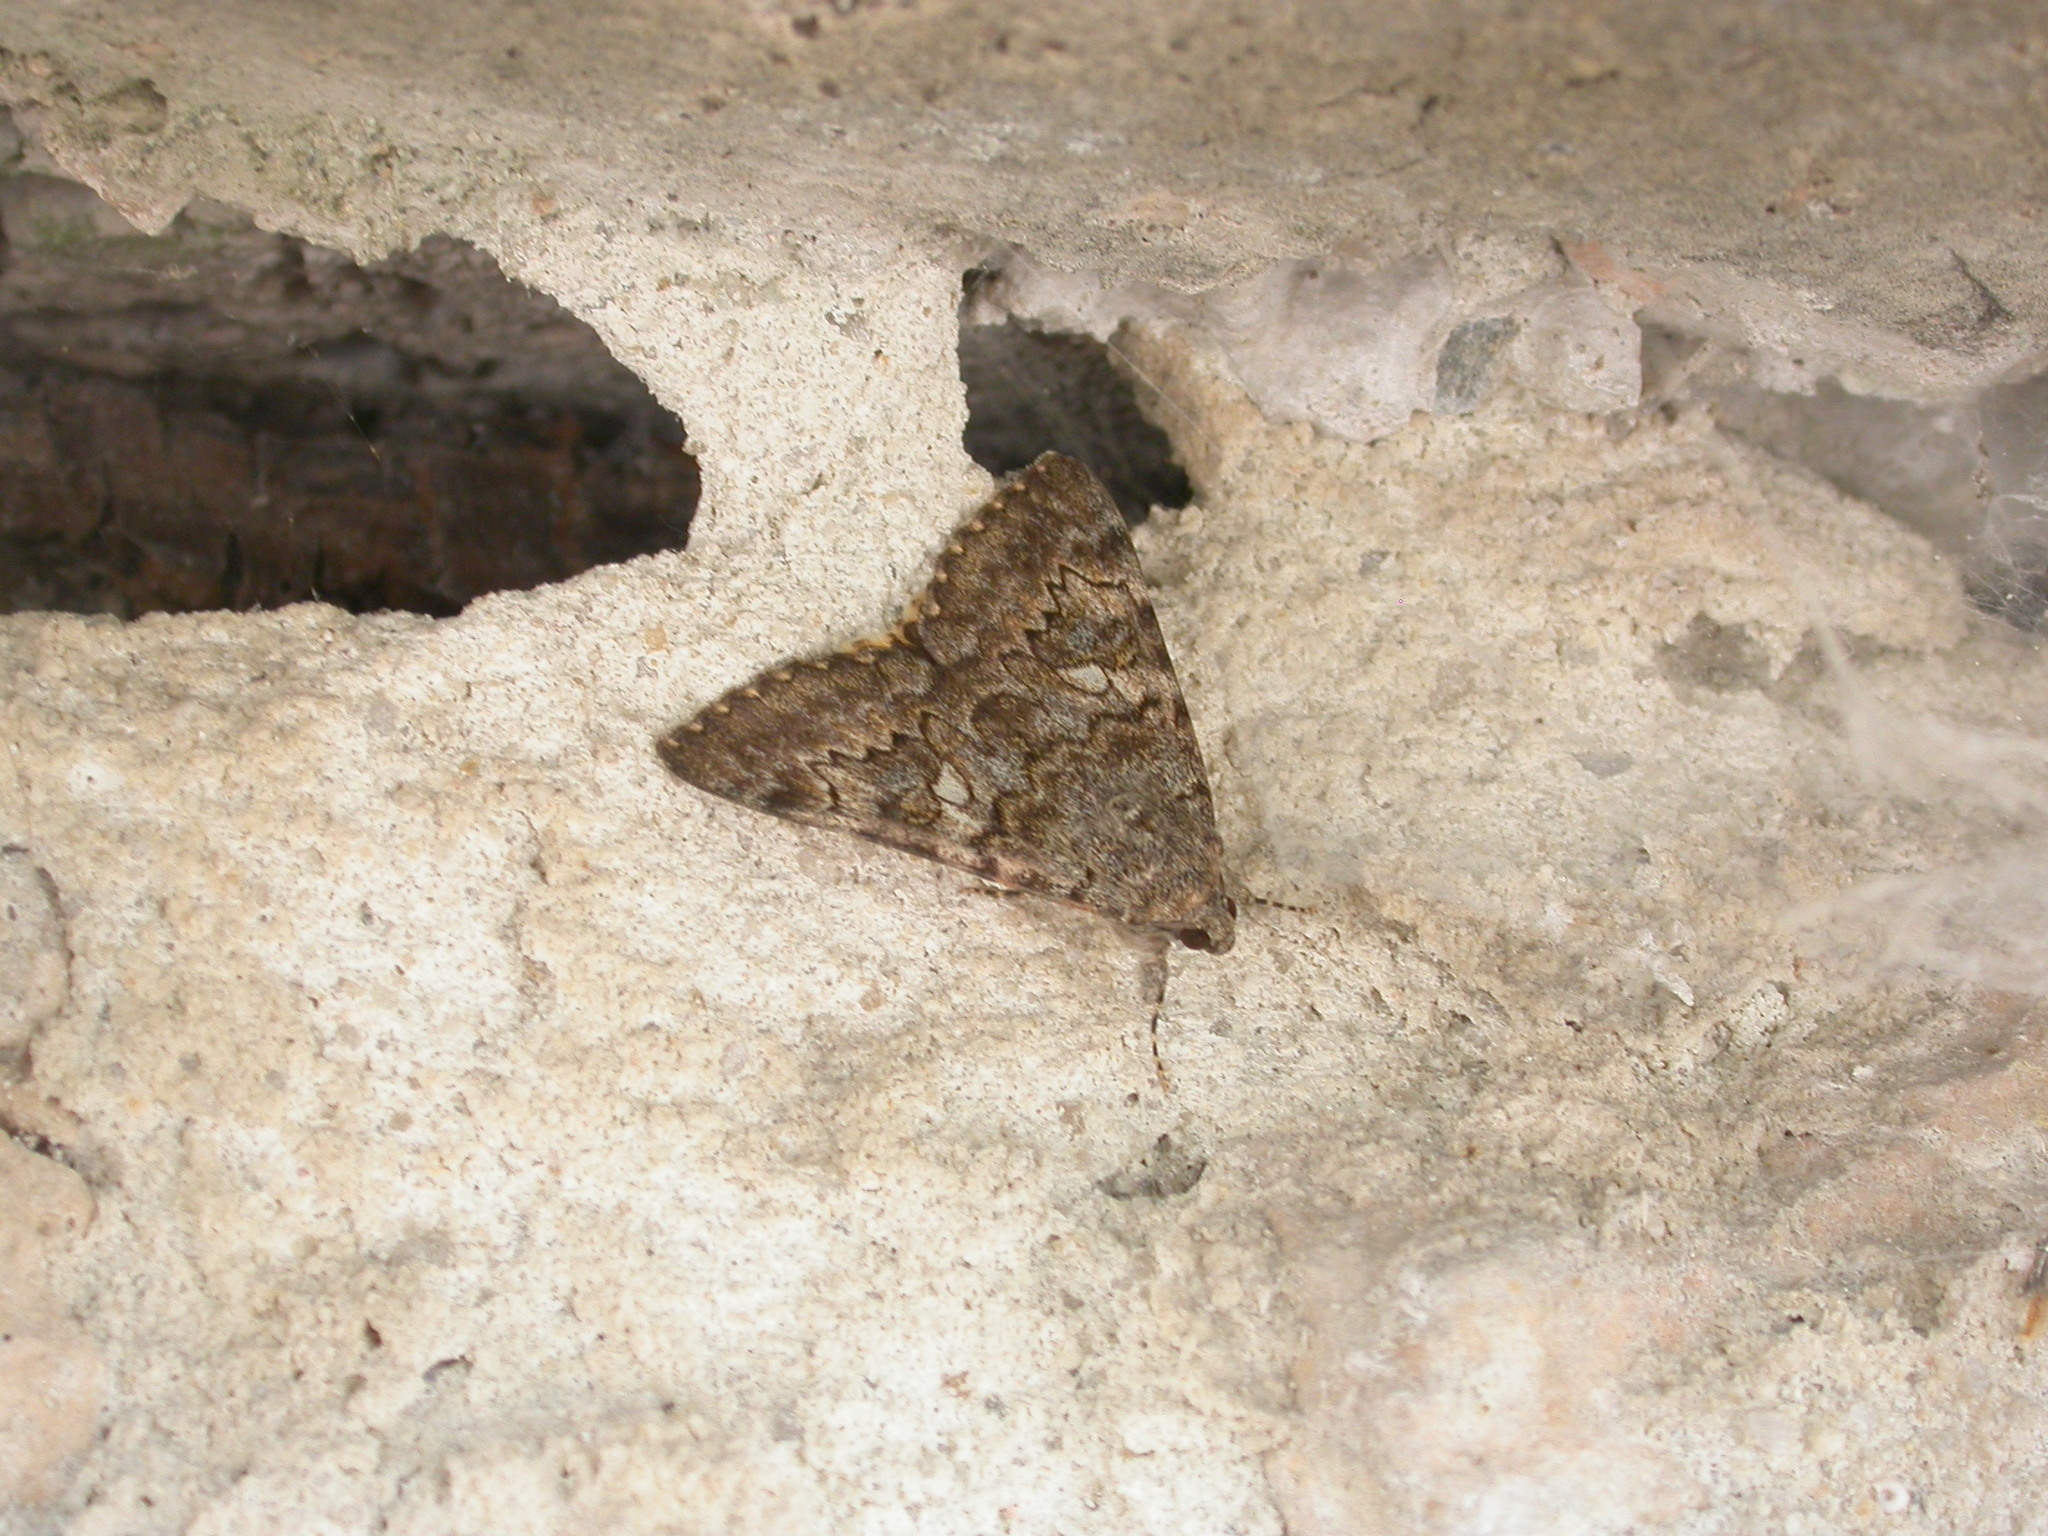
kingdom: Animalia
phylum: Arthropoda
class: Insecta
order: Lepidoptera
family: Erebidae
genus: Catocala
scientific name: Catocala nymphaea
